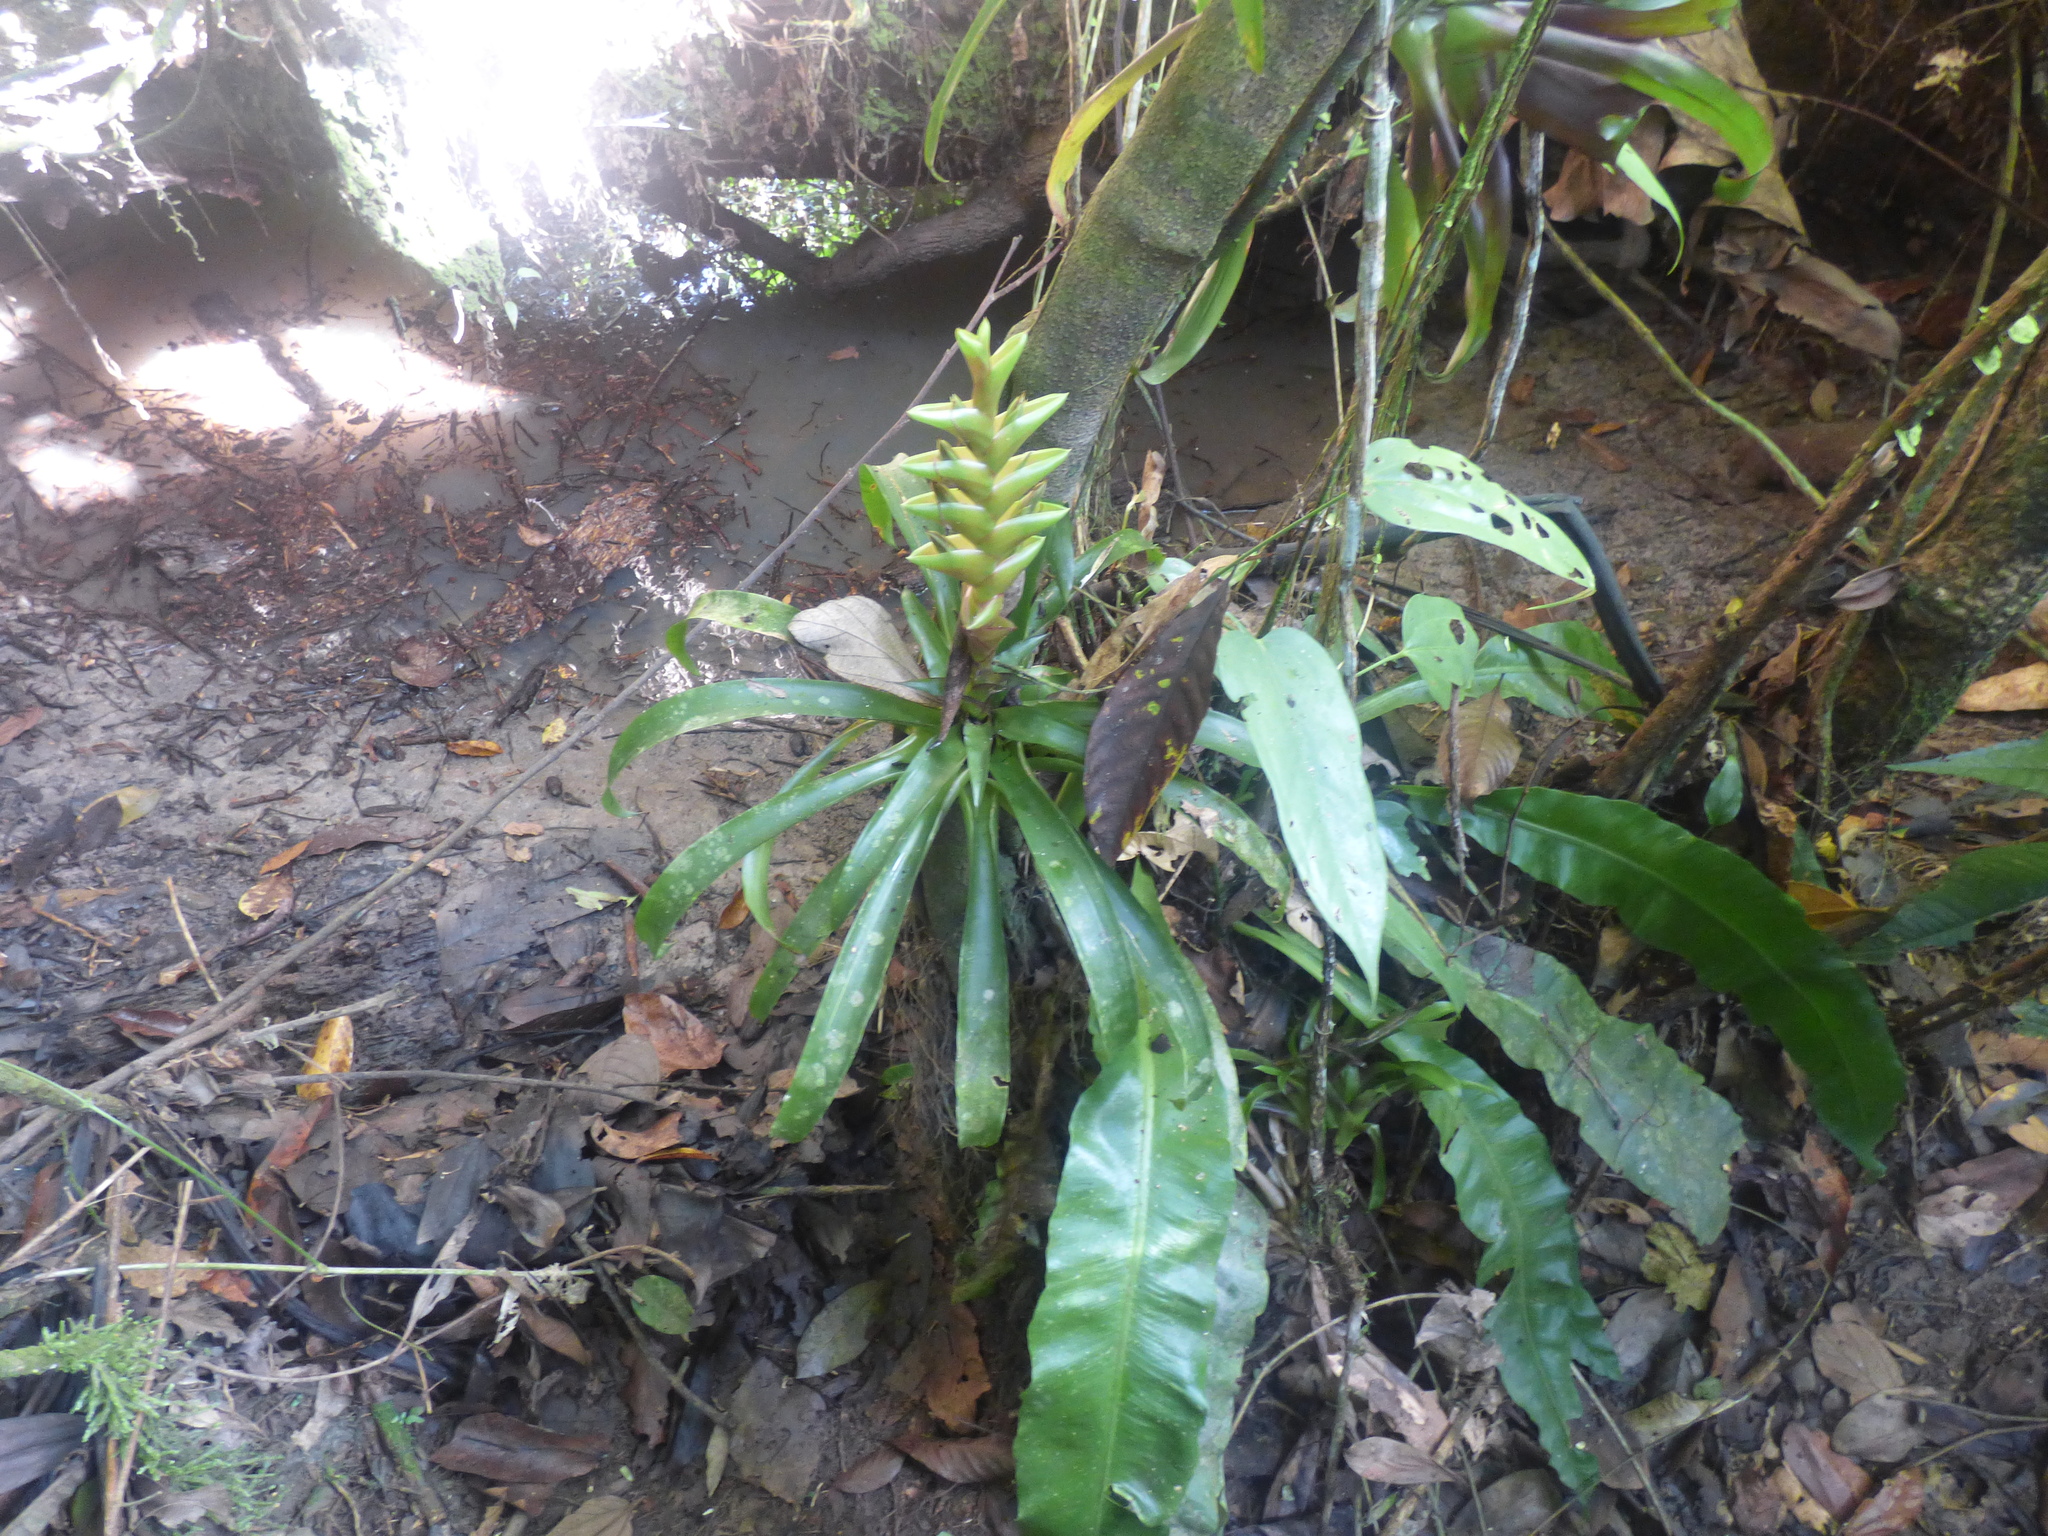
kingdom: Plantae
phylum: Tracheophyta
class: Liliopsida
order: Poales
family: Bromeliaceae
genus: Tillandsia
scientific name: Tillandsia heliconioides
